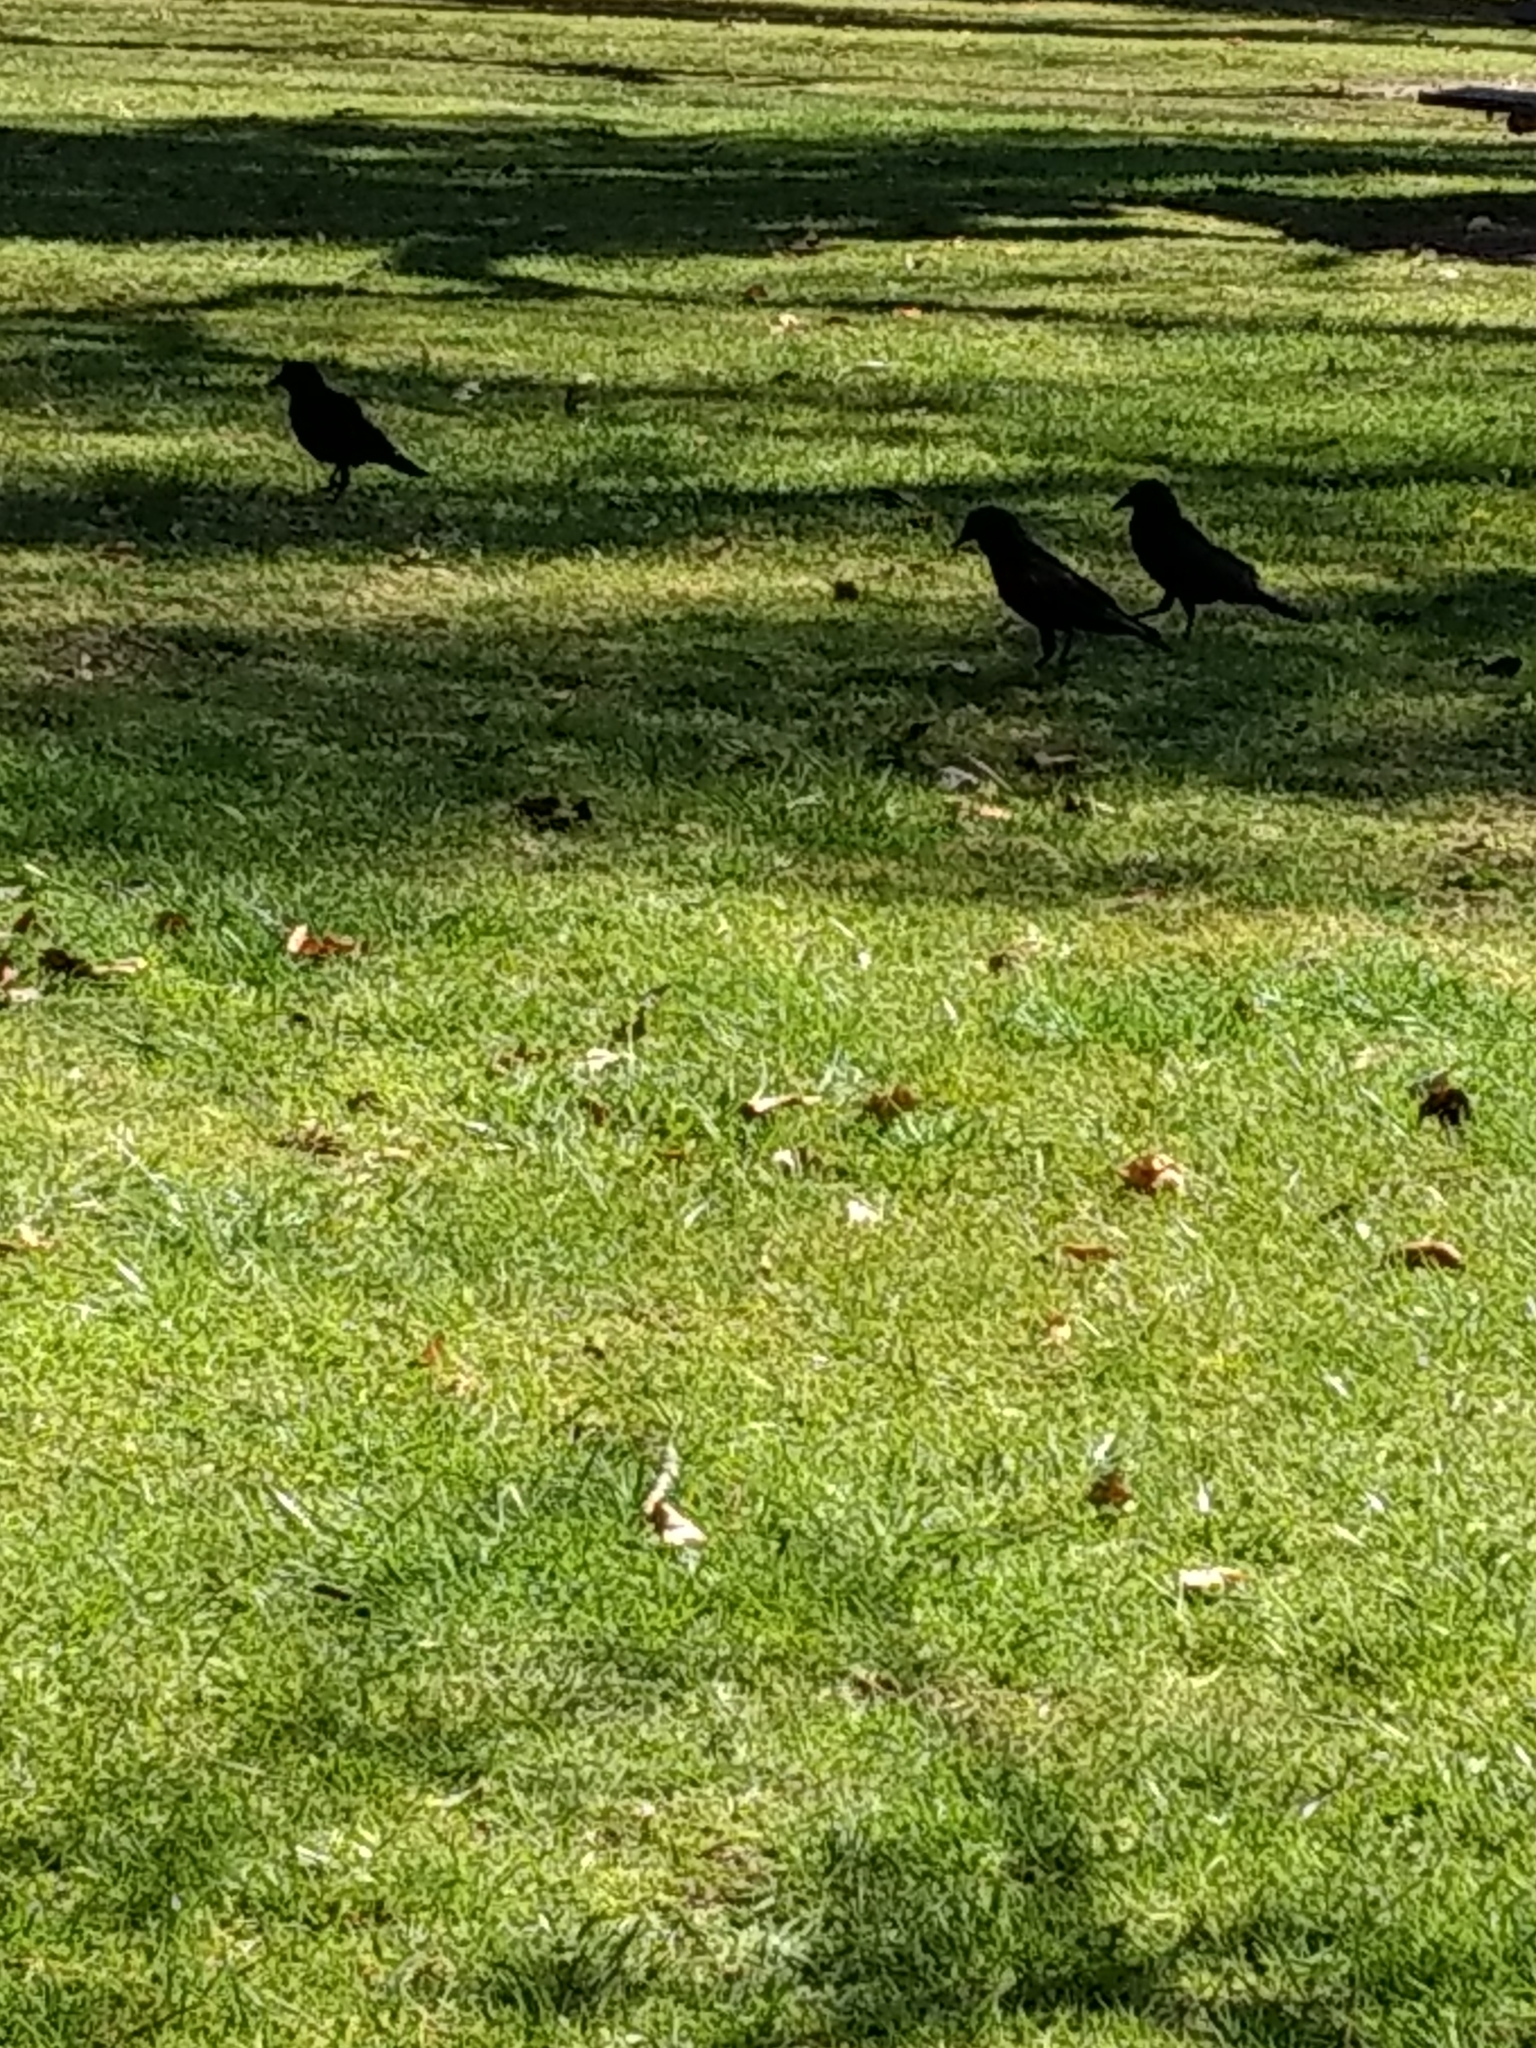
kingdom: Animalia
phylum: Chordata
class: Aves
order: Passeriformes
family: Corvidae
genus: Corvus
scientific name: Corvus brachyrhynchos
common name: American crow
